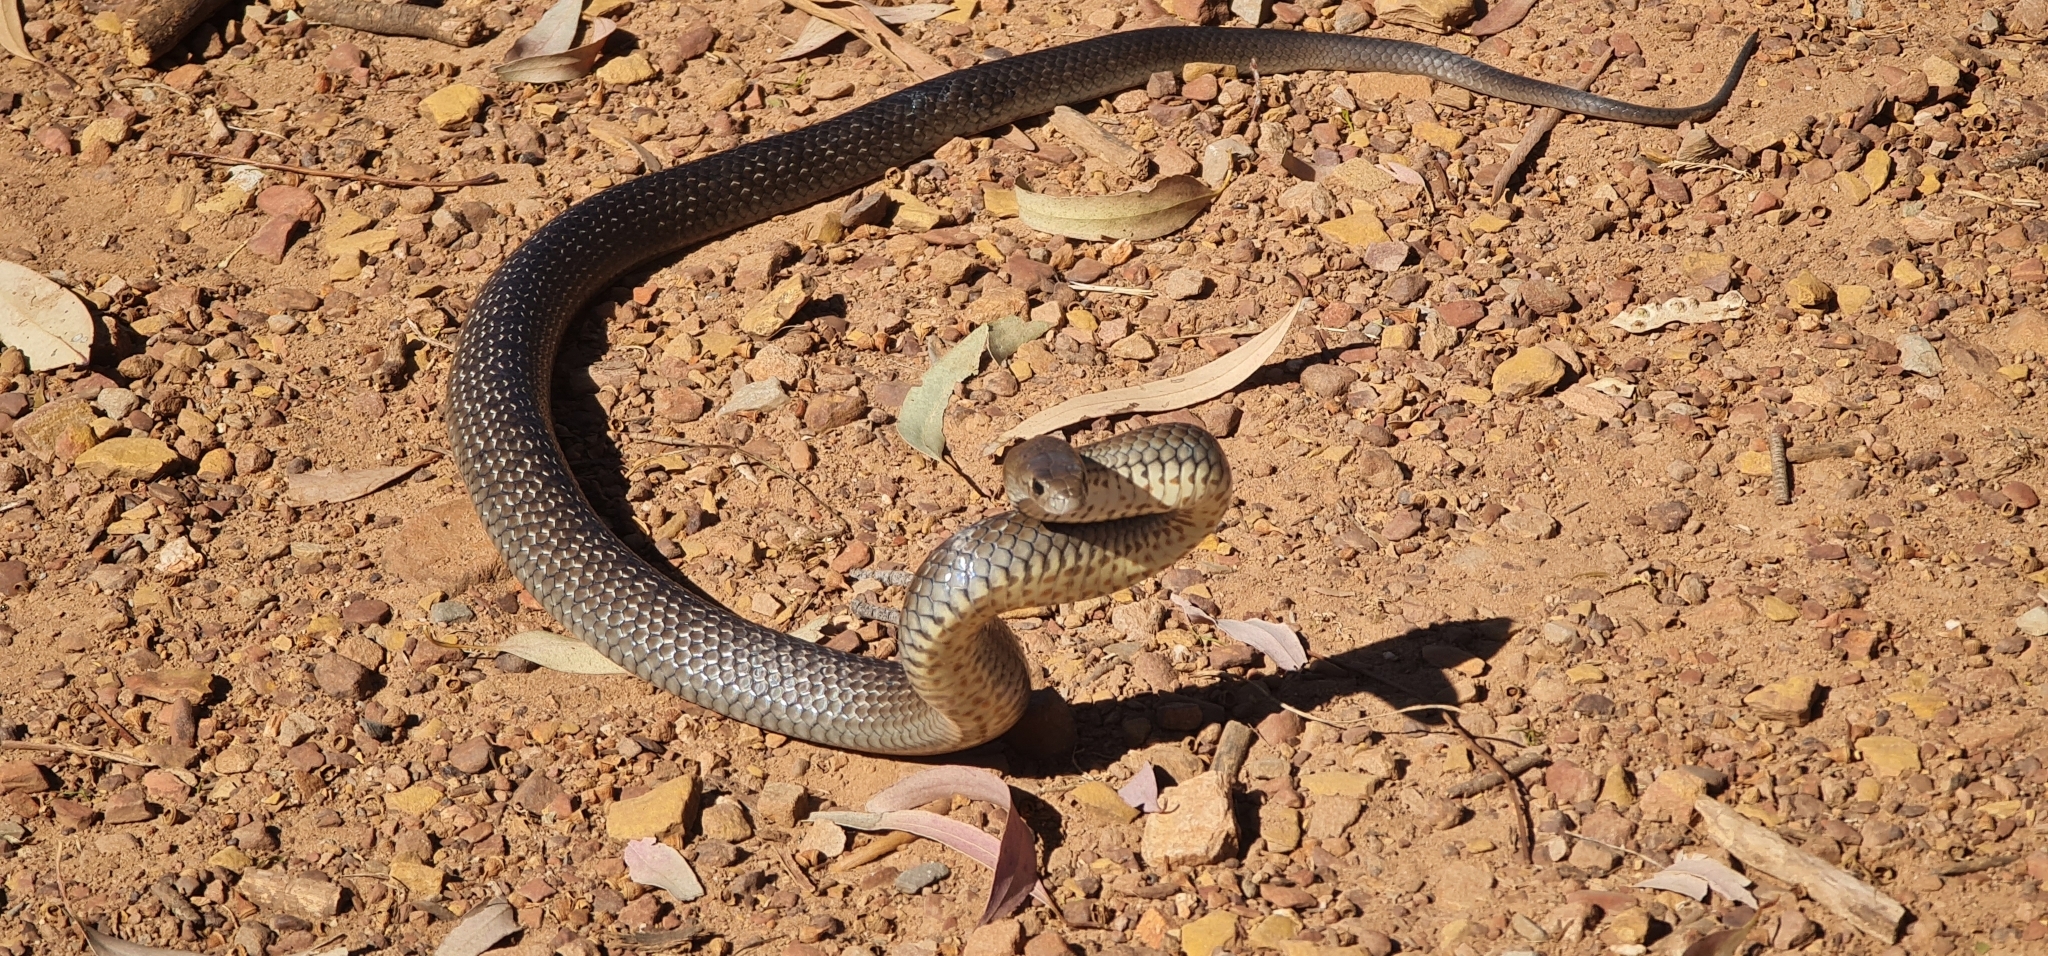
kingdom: Animalia
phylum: Chordata
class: Squamata
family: Elapidae
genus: Pseudonaja
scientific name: Pseudonaja textilis
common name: Eastern brown snake
